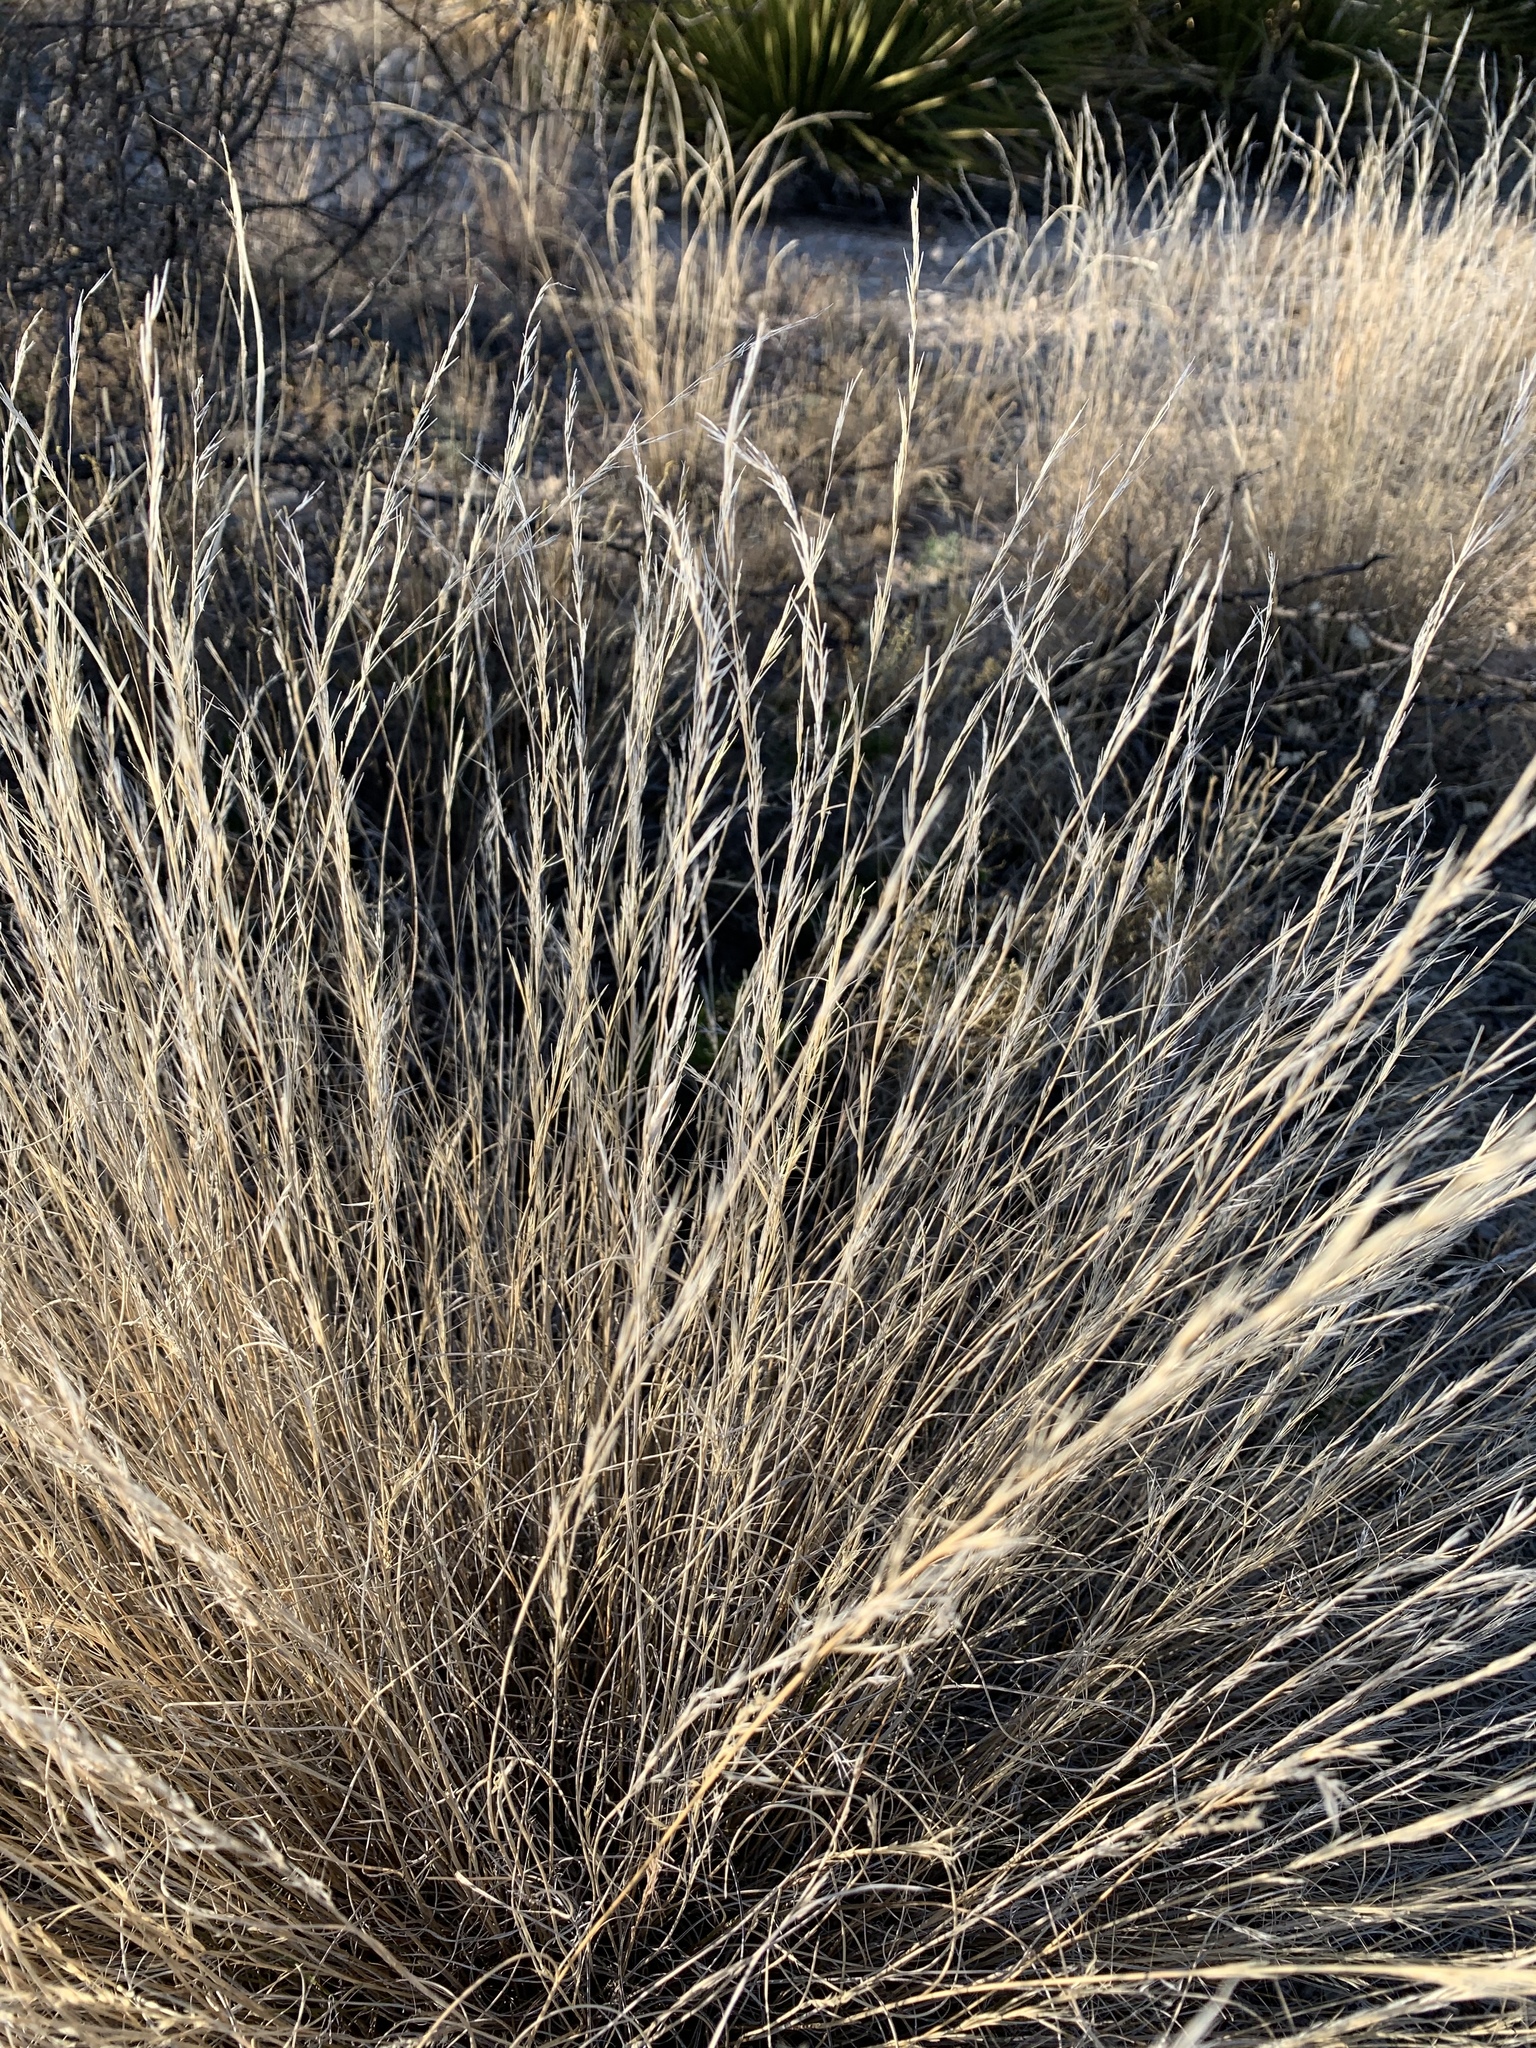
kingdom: Plantae
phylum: Tracheophyta
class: Liliopsida
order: Poales
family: Poaceae
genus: Aristida
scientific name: Aristida purpurea
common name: Purple threeawn
